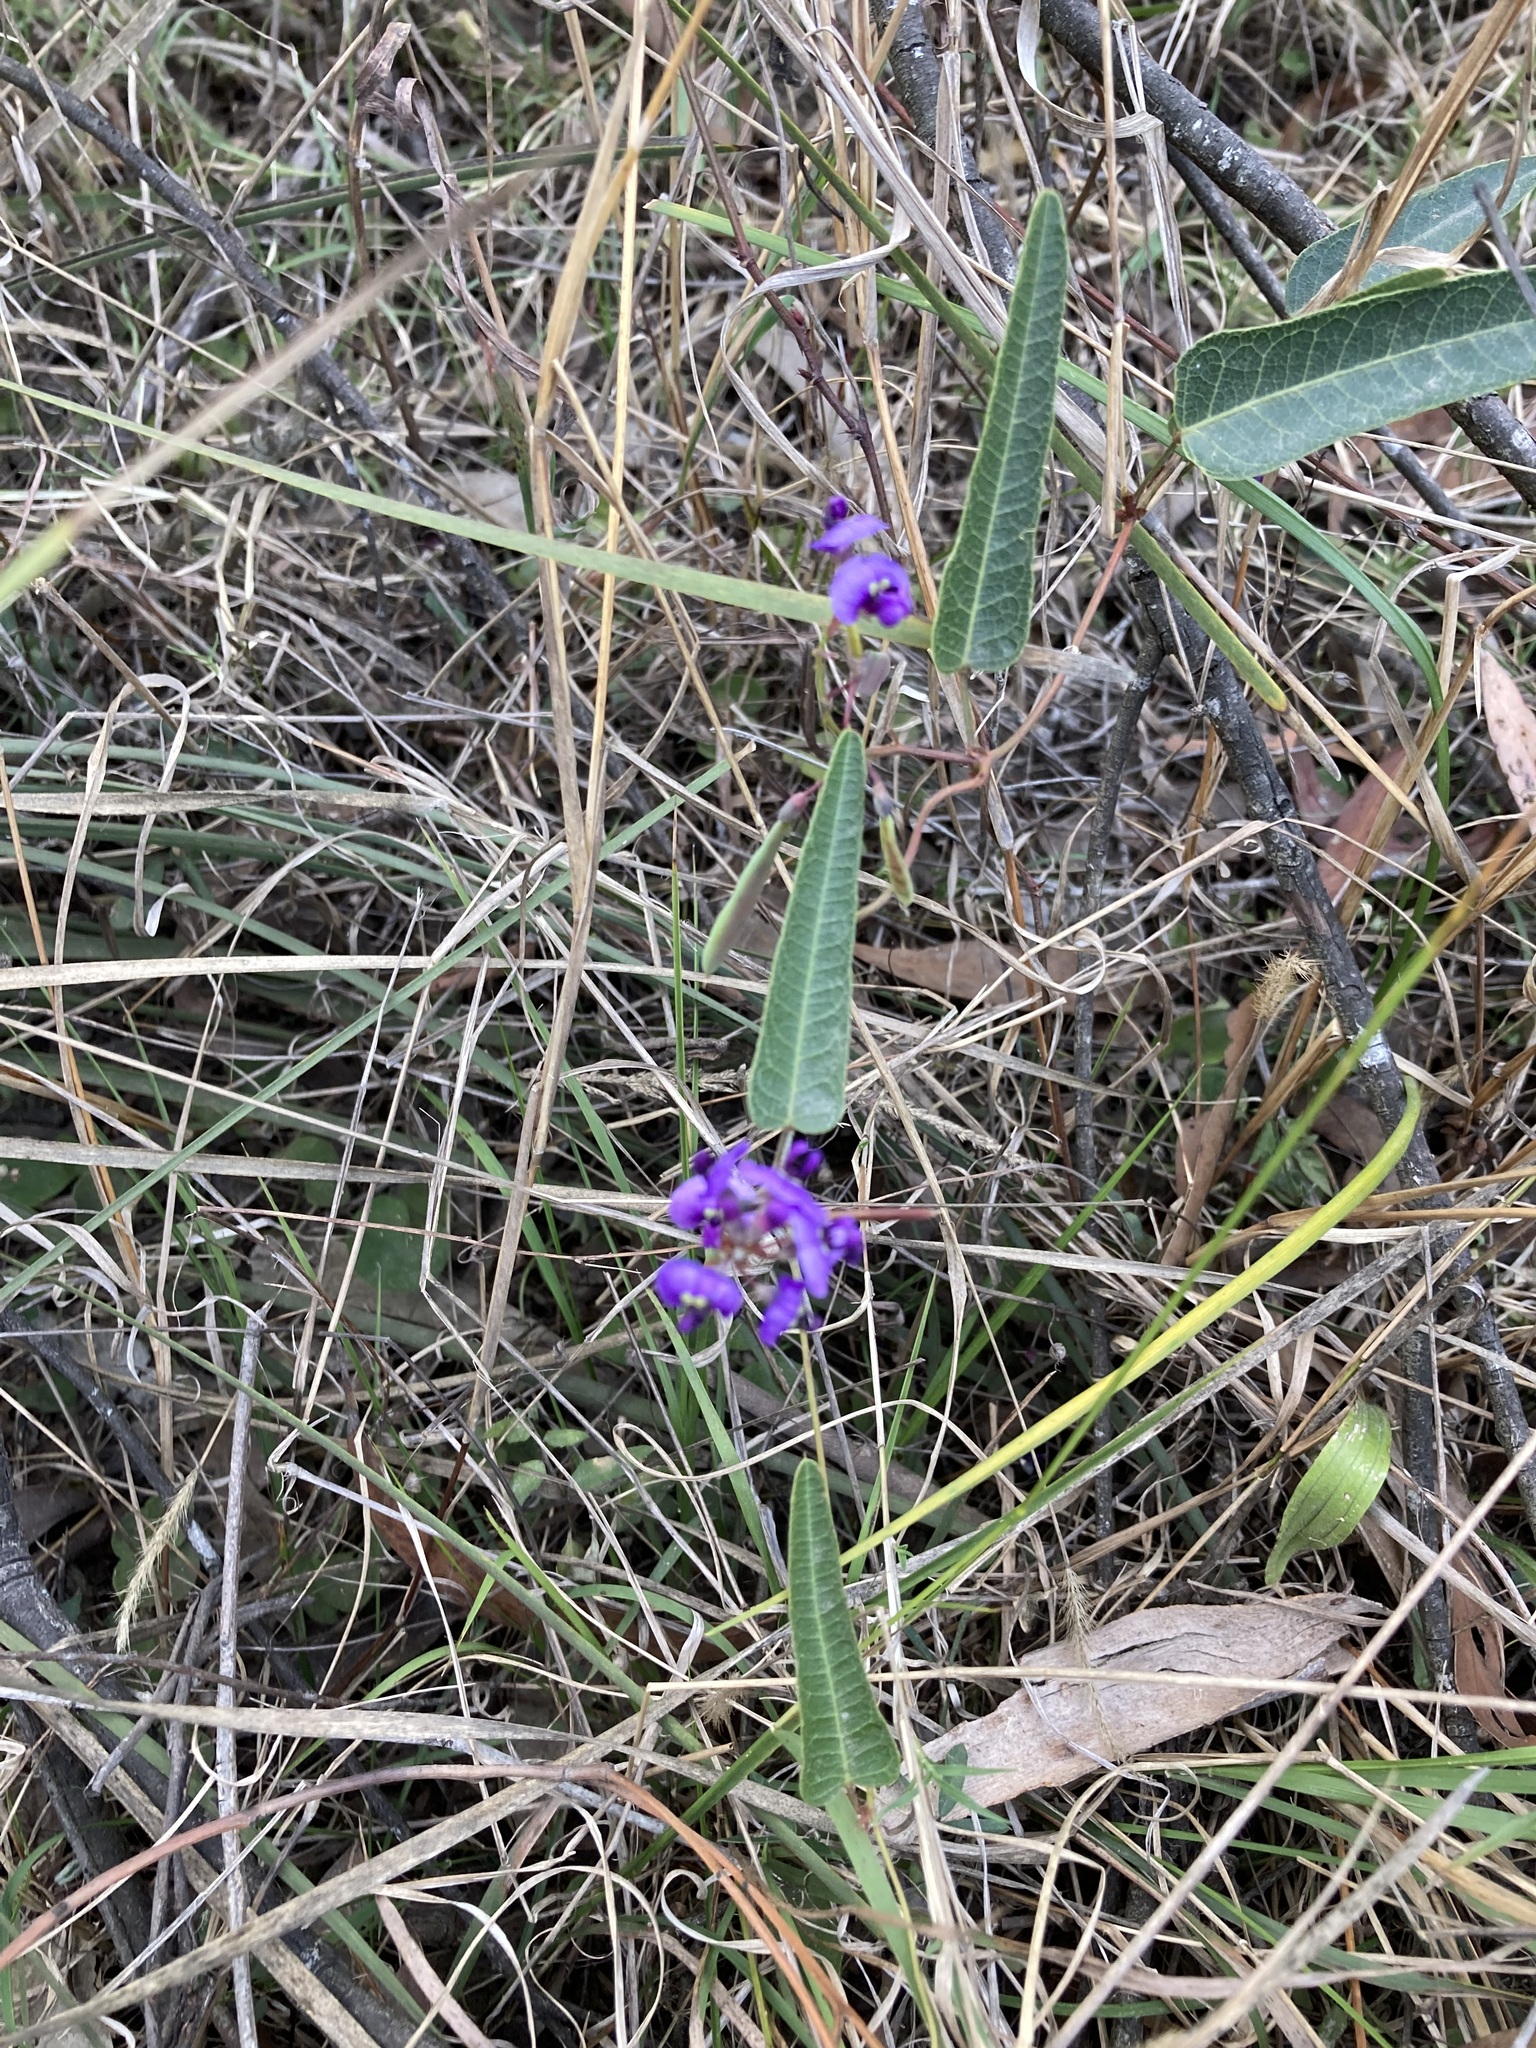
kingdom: Plantae
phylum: Tracheophyta
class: Magnoliopsida
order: Fabales
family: Fabaceae
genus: Hardenbergia
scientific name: Hardenbergia violacea
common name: Coral-pea
